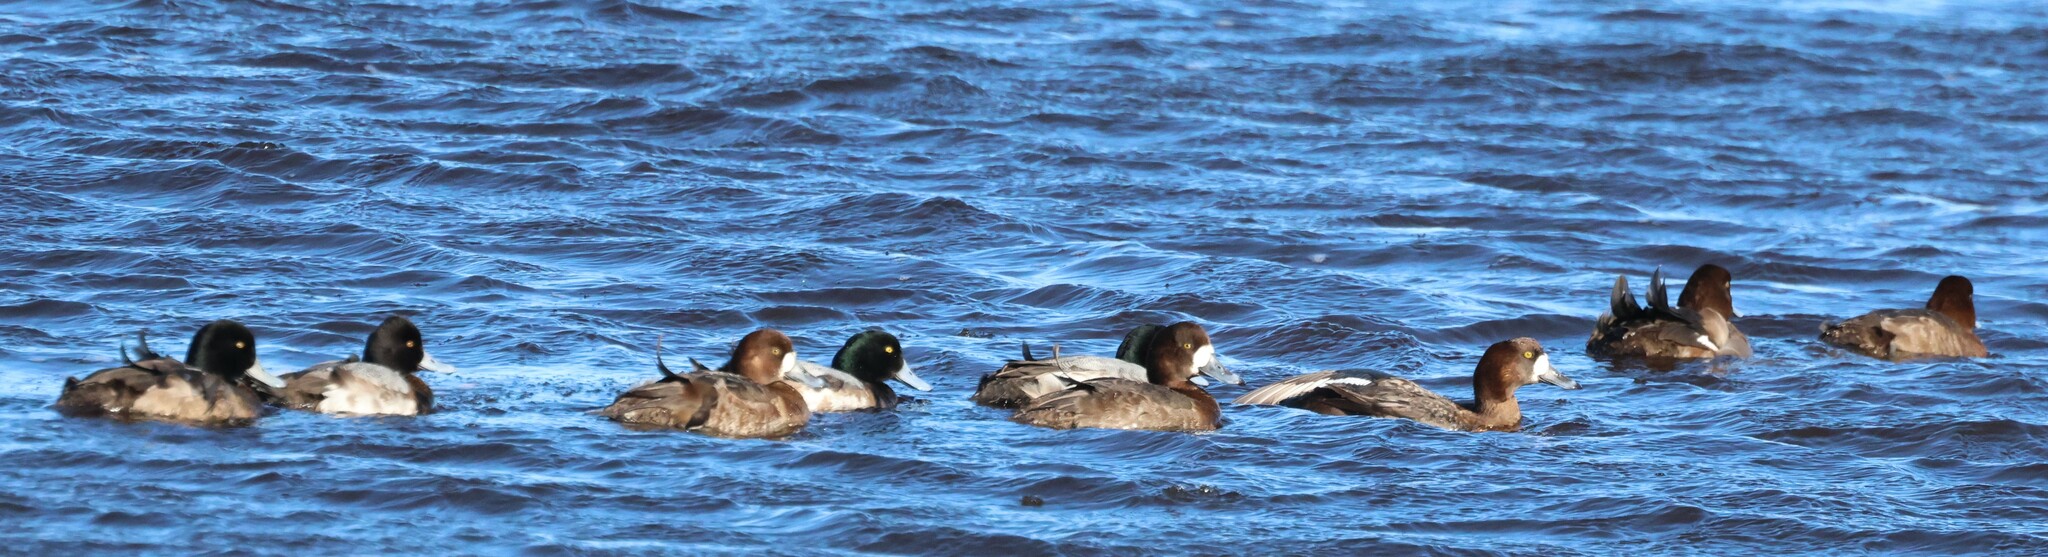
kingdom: Animalia
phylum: Chordata
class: Aves
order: Anseriformes
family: Anatidae
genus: Aythya
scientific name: Aythya marila
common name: Greater scaup
